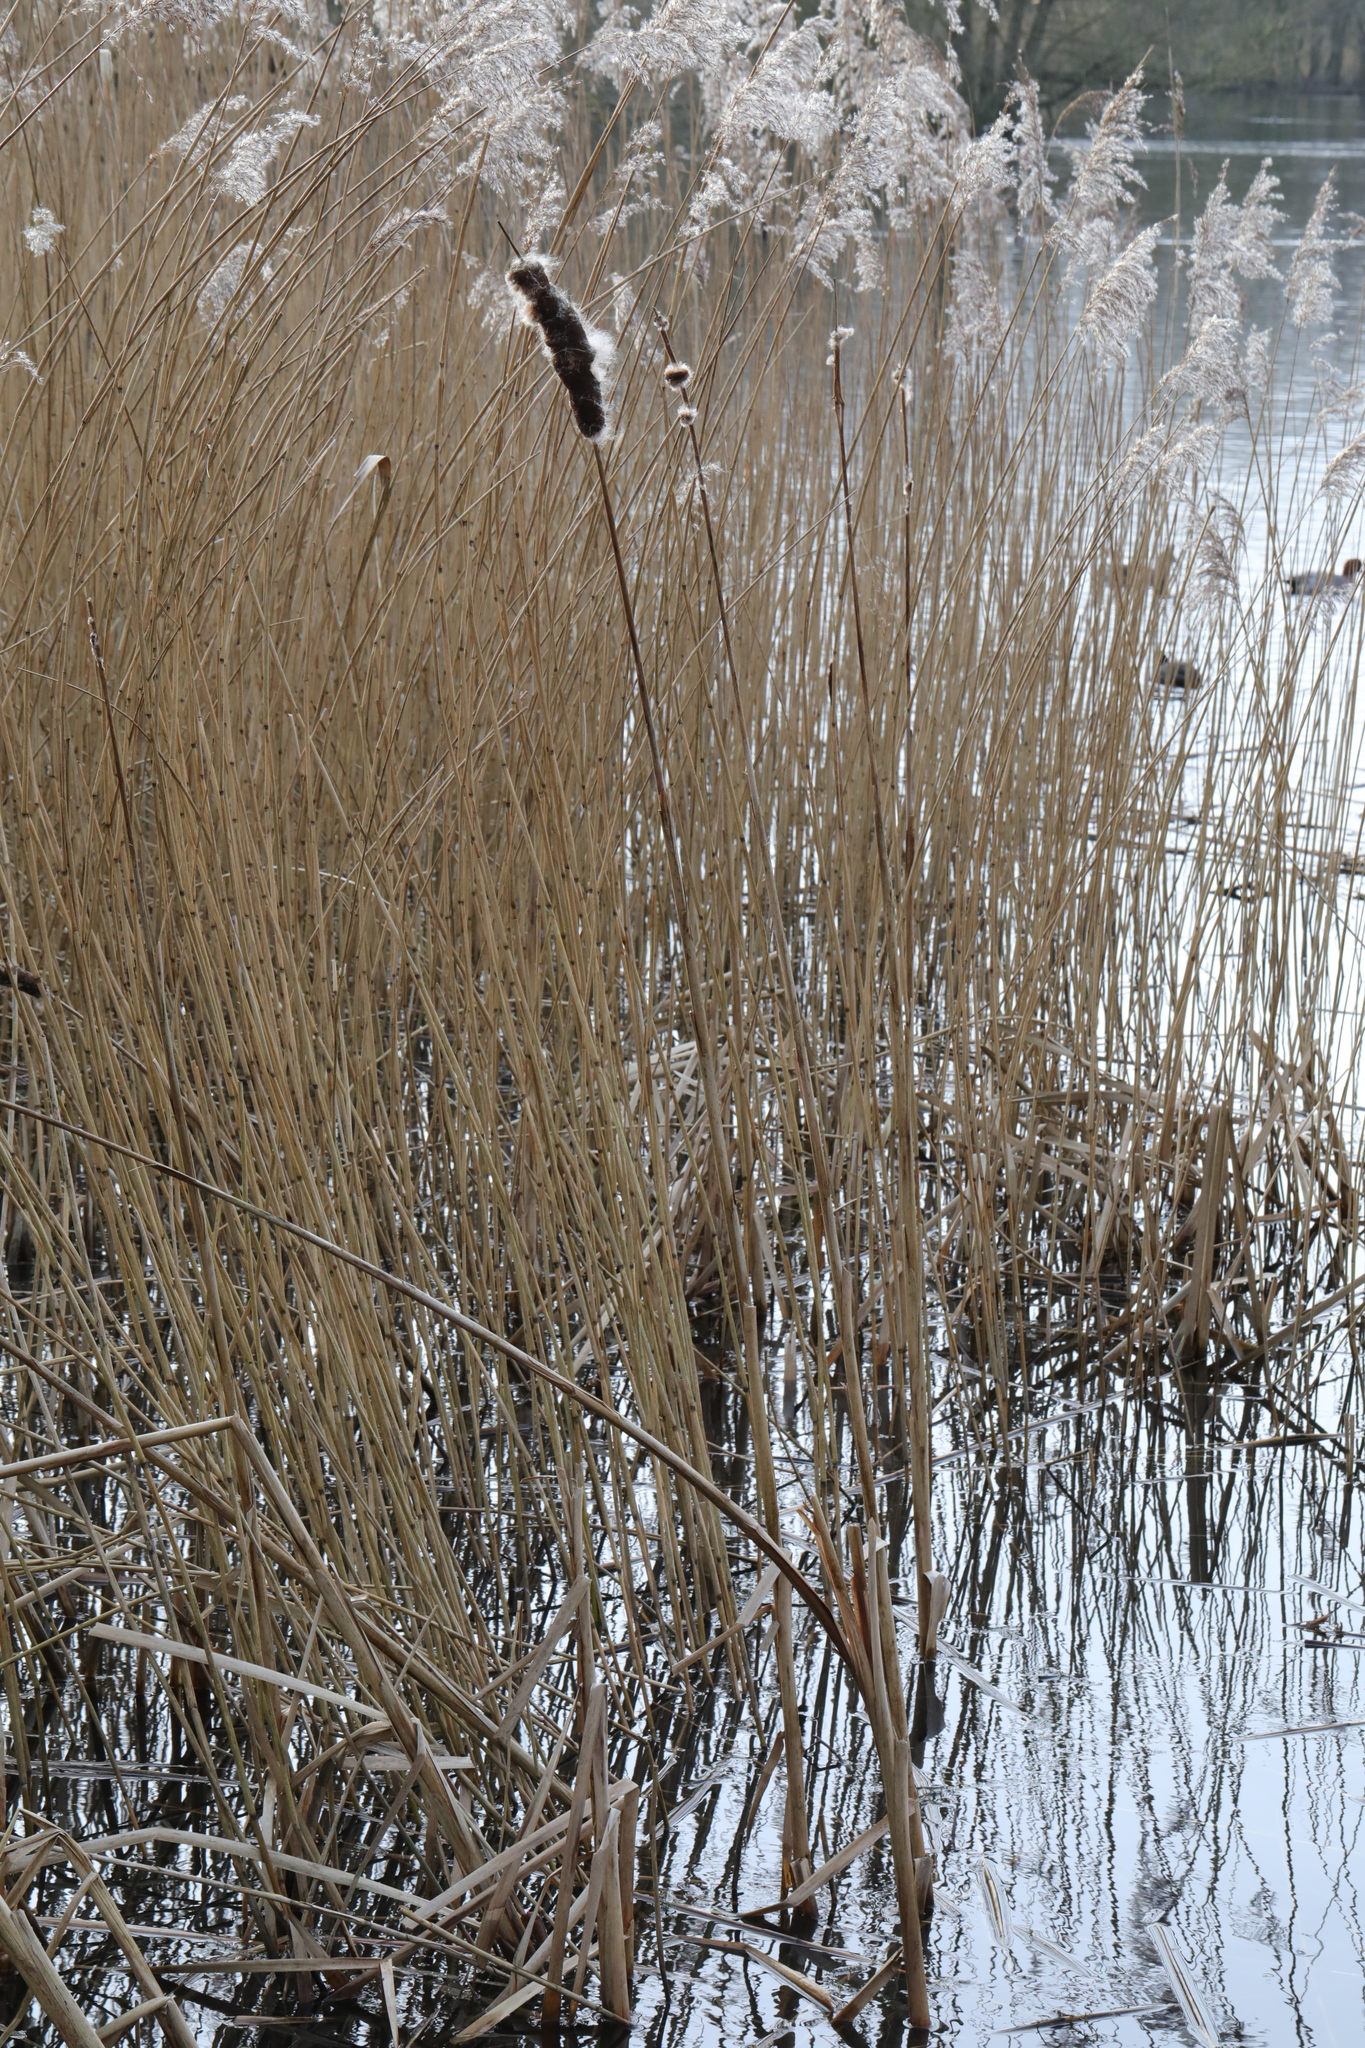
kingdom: Plantae
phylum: Tracheophyta
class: Liliopsida
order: Poales
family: Typhaceae
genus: Typha
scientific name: Typha latifolia
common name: Broadleaf cattail
